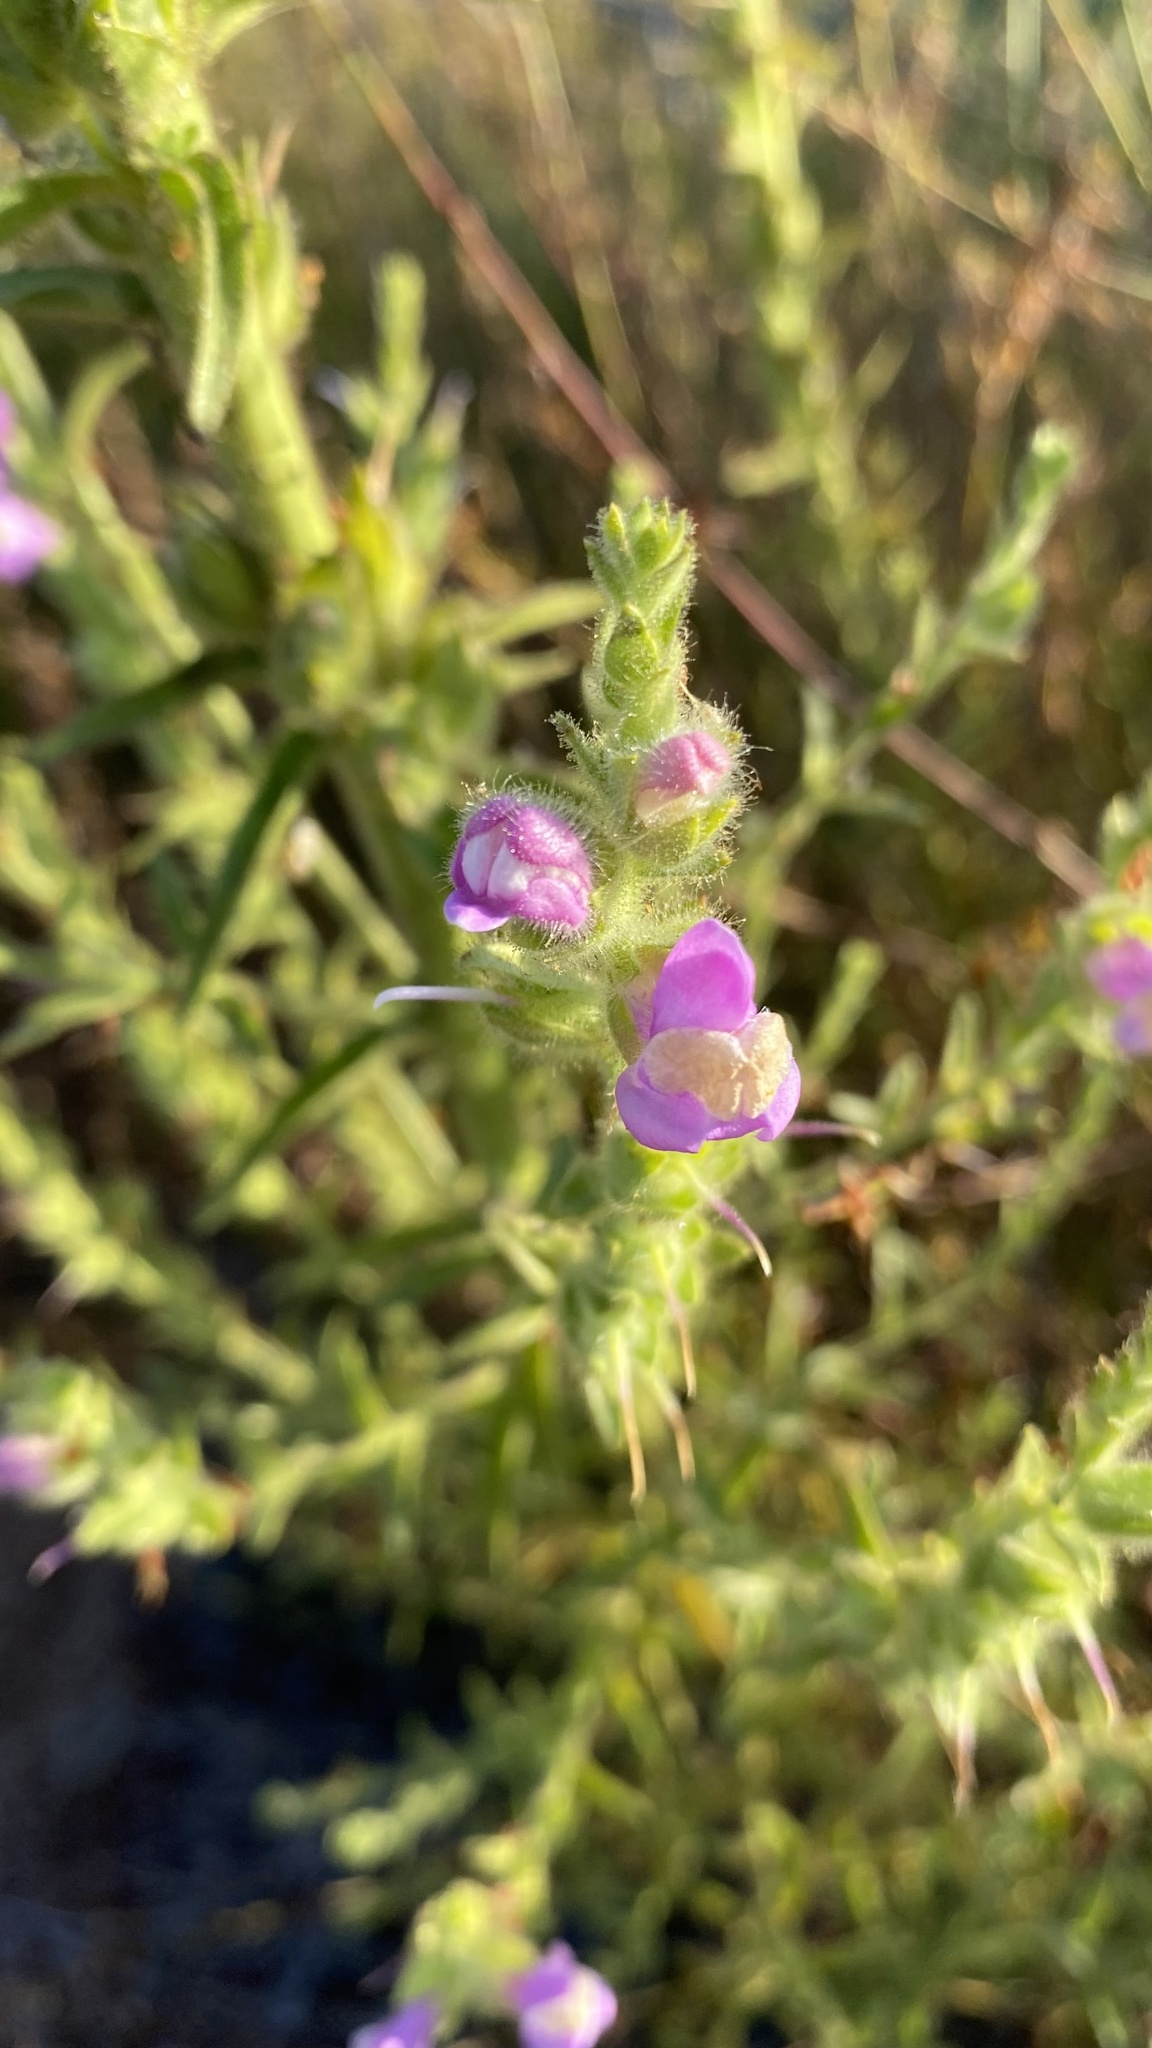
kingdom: Plantae
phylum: Tracheophyta
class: Magnoliopsida
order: Lamiales
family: Plantaginaceae
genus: Sairocarpus
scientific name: Sairocarpus multiflorus
